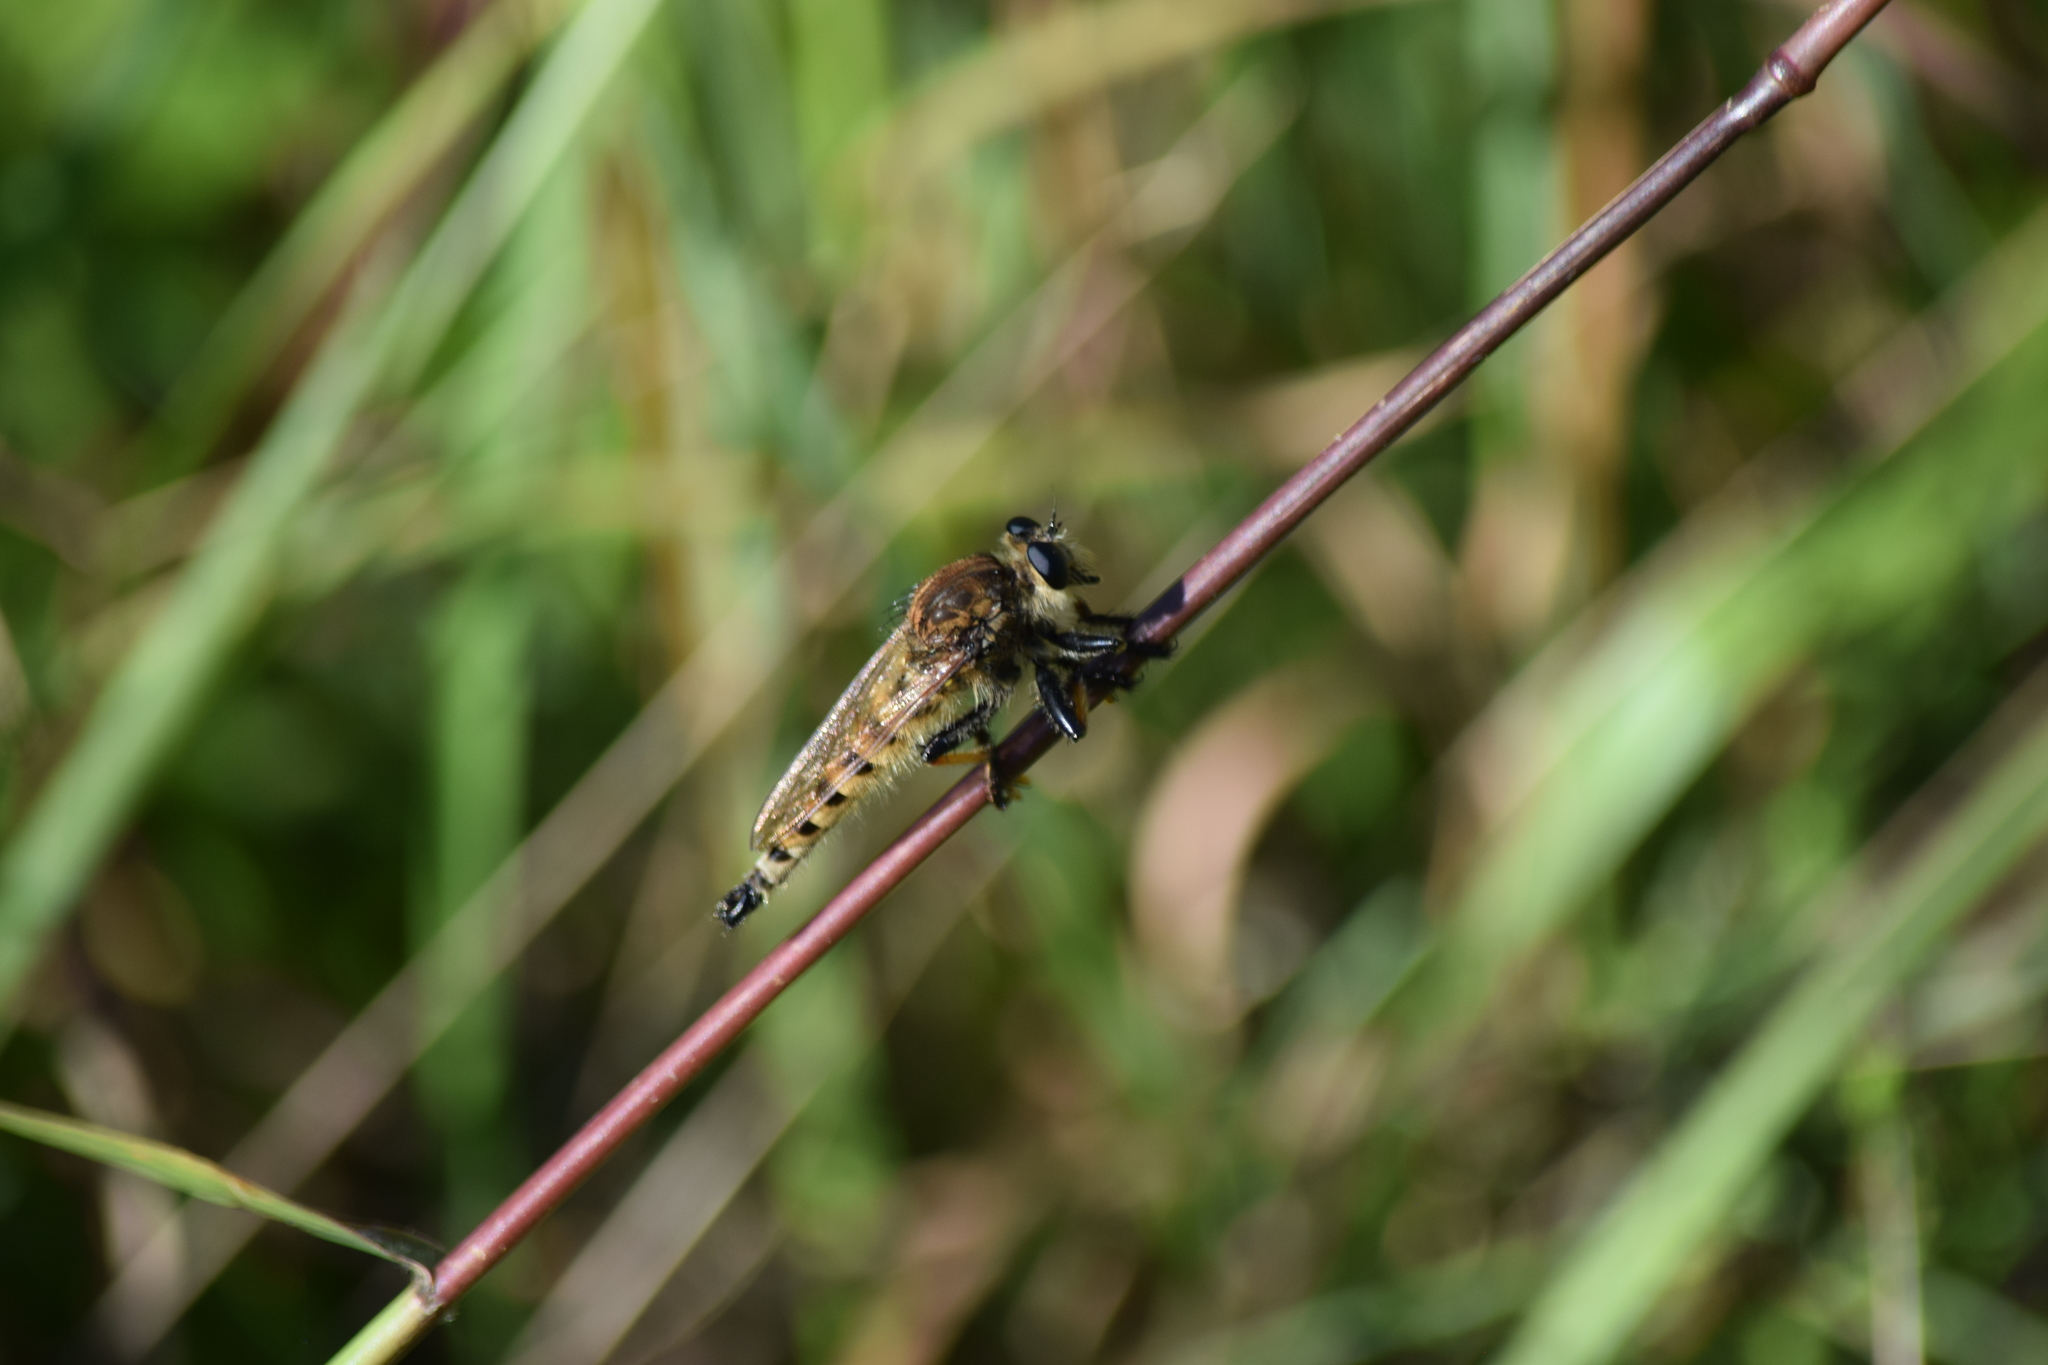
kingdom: Animalia
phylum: Arthropoda
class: Insecta
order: Diptera
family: Asilidae
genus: Promachus
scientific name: Promachus rufipes
